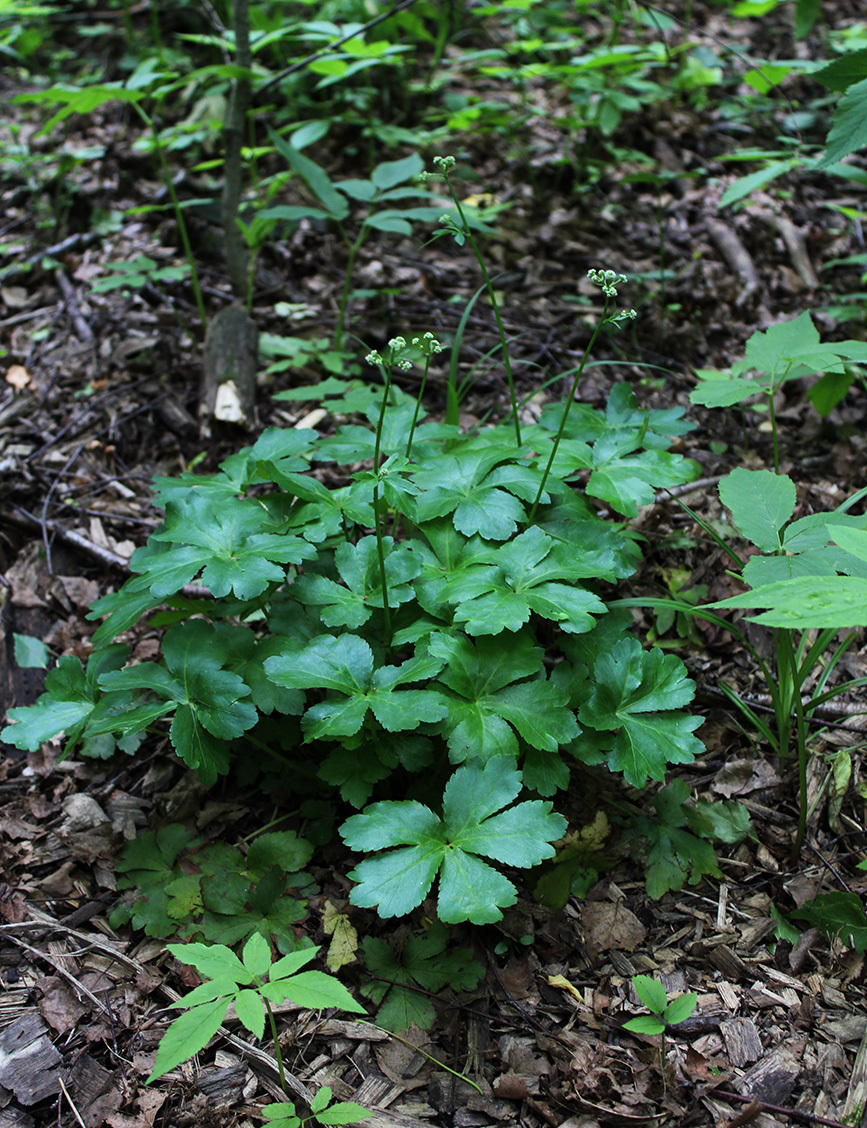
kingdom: Plantae
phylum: Tracheophyta
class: Magnoliopsida
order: Apiales
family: Apiaceae
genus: Sanicula
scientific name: Sanicula europaea
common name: Sanicle
